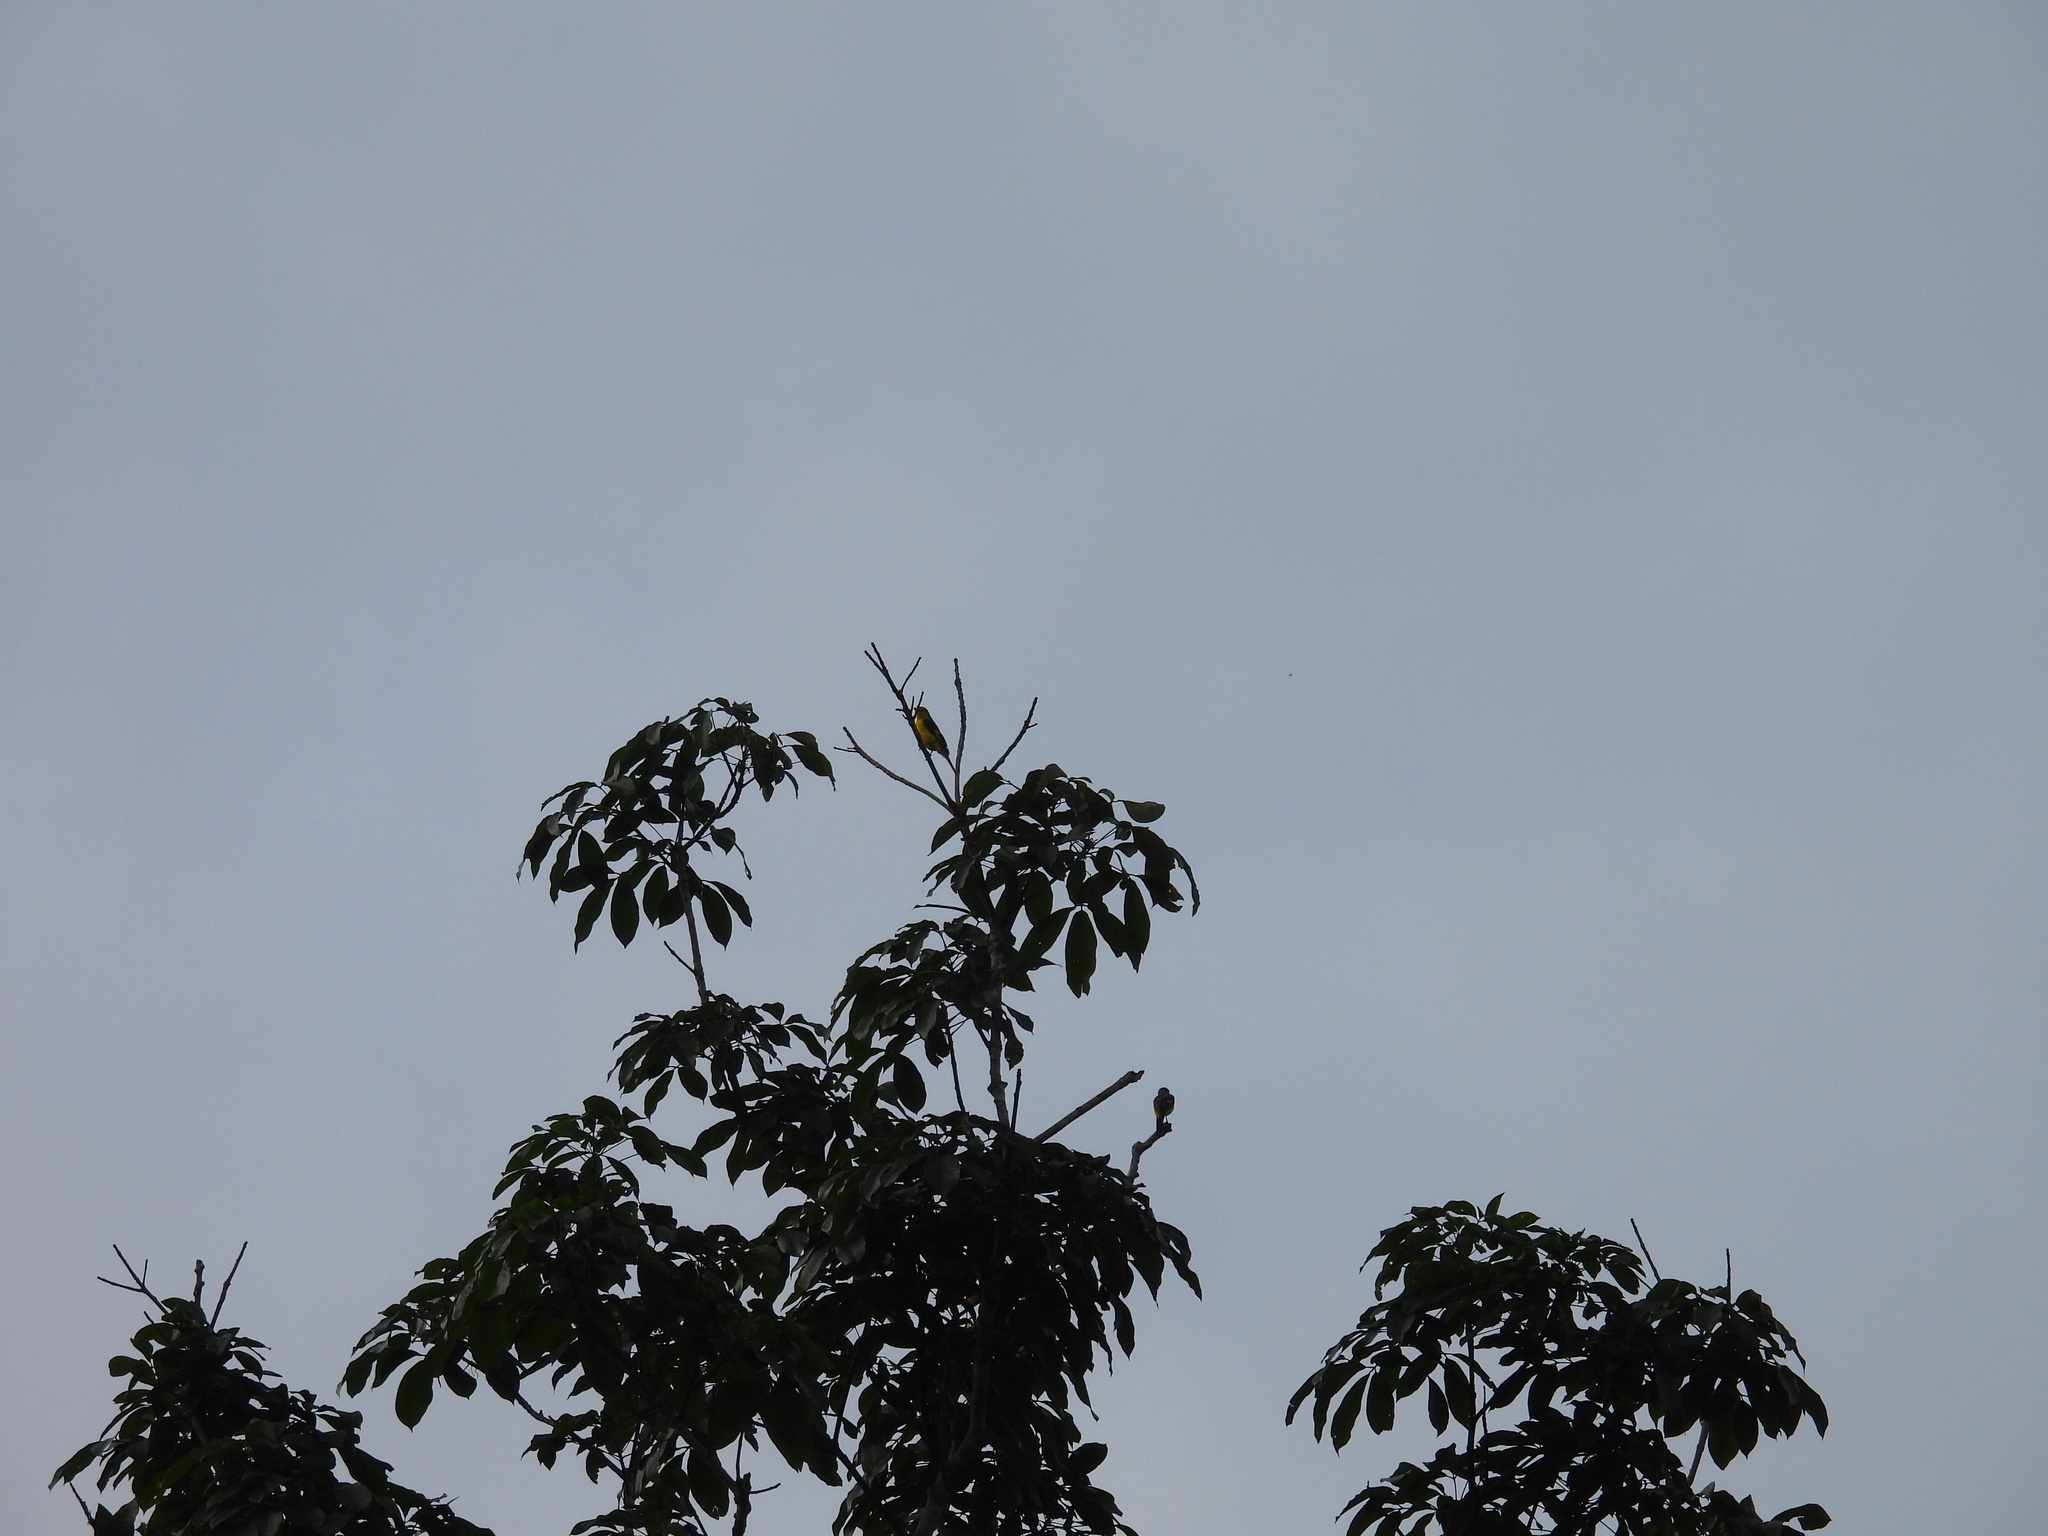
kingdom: Animalia
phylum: Chordata
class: Aves
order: Passeriformes
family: Campephagidae
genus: Pericrocotus
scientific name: Pericrocotus flammeus
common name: Orange minivet
